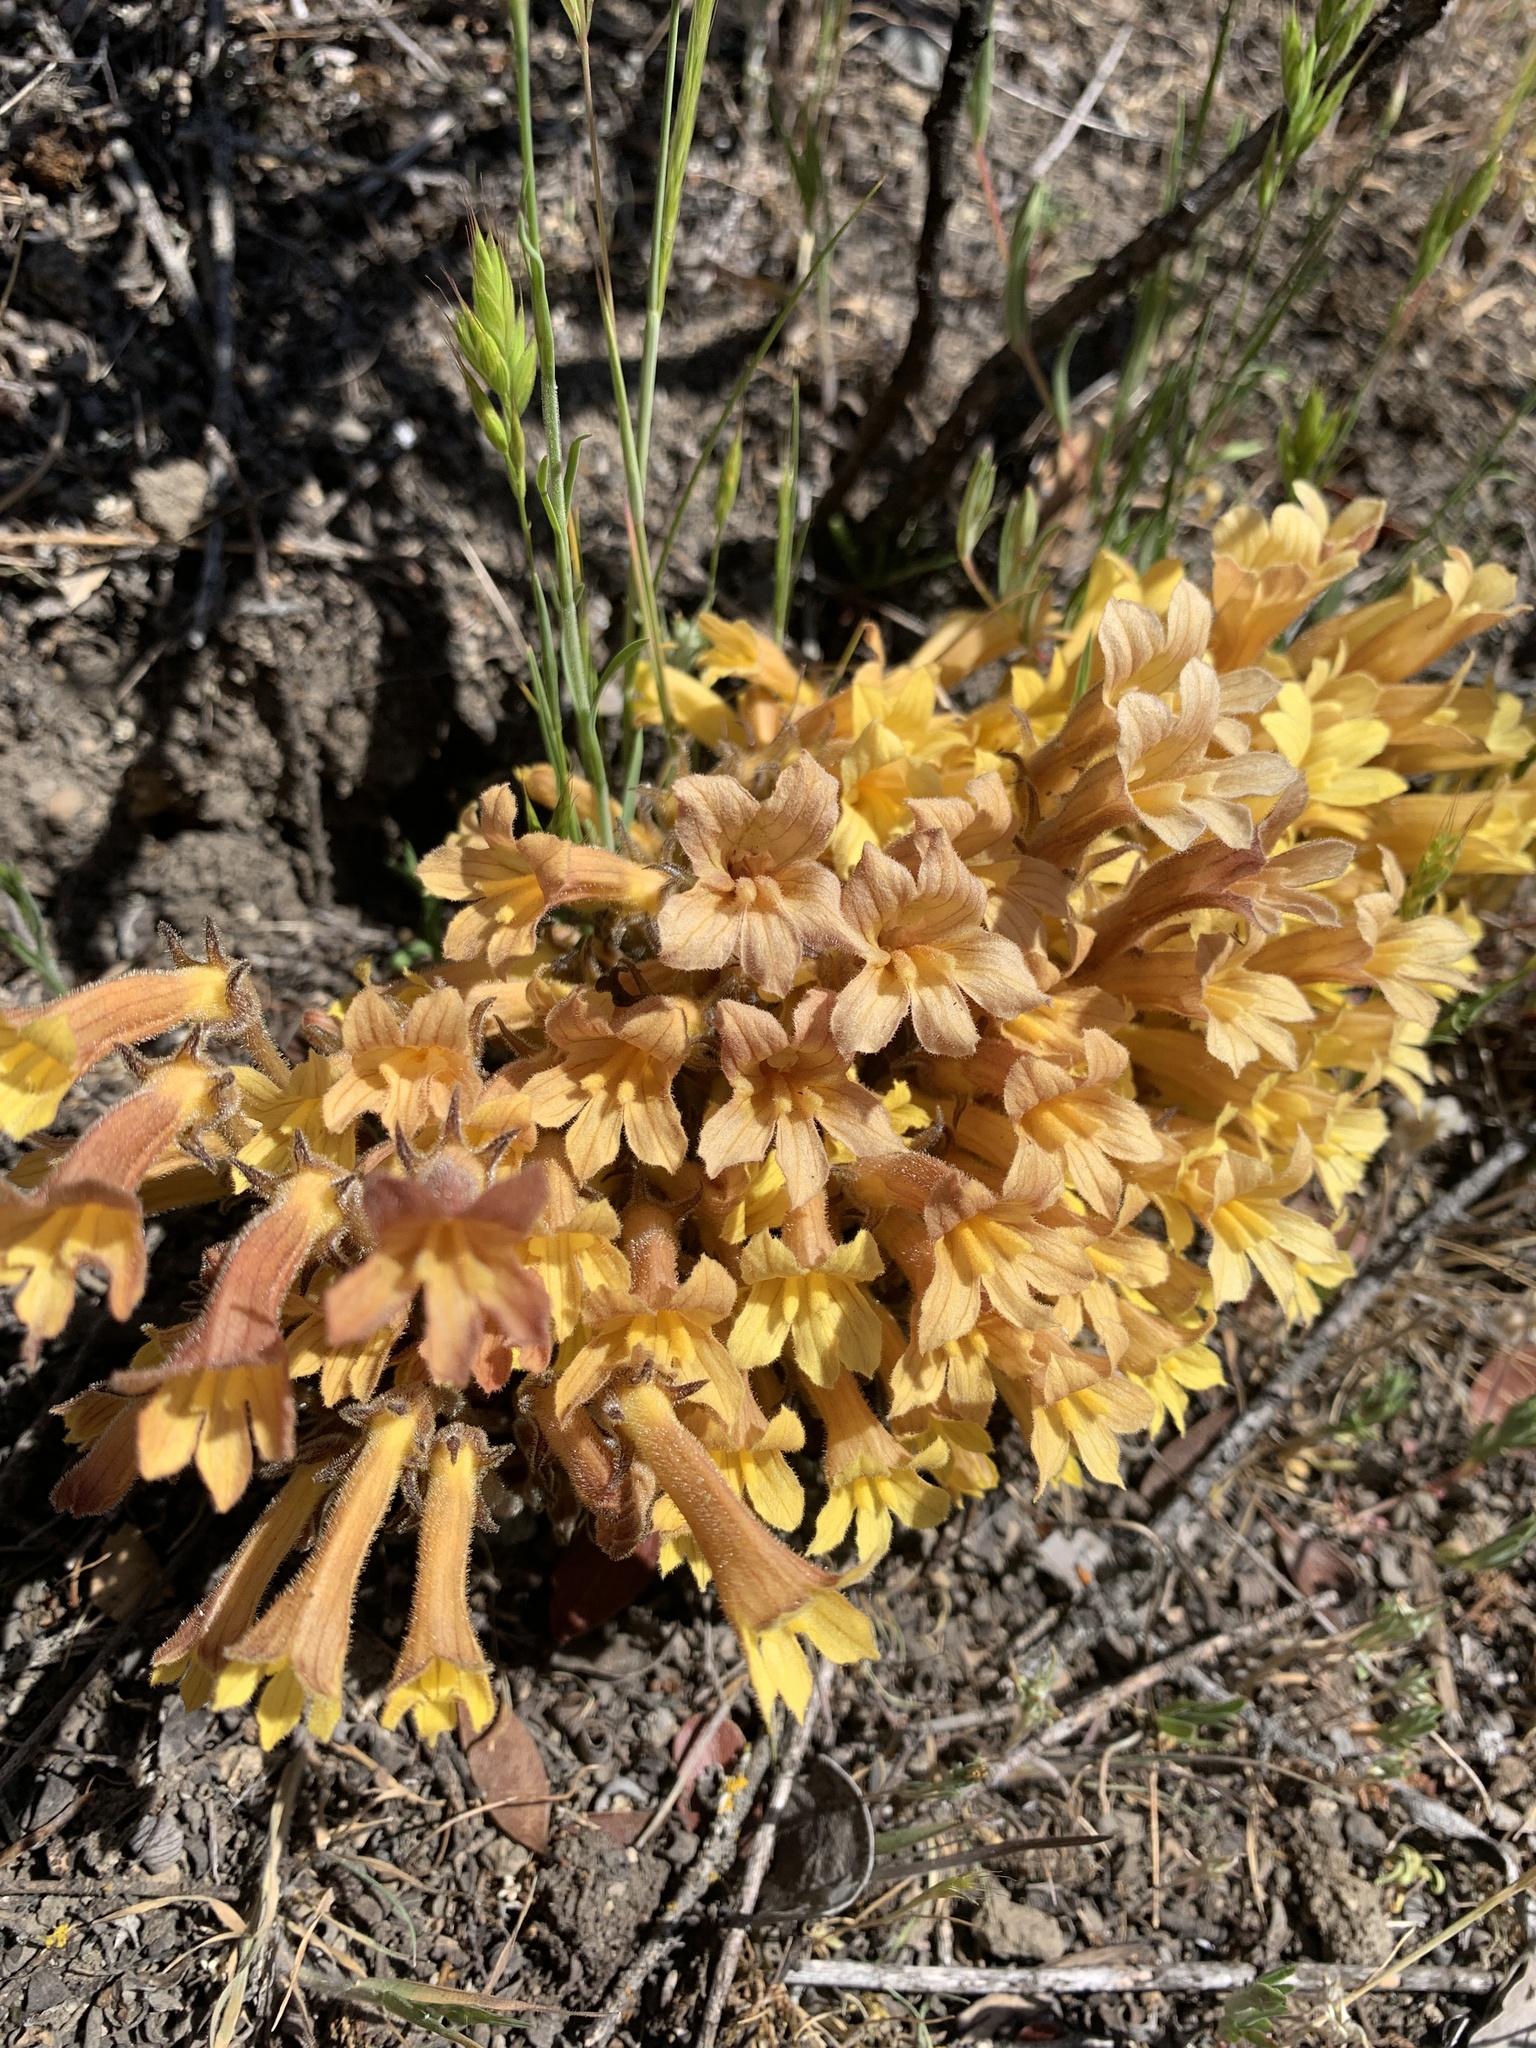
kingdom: Plantae
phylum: Tracheophyta
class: Magnoliopsida
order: Lamiales
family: Orobanchaceae
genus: Aphyllon
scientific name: Aphyllon franciscanum
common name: San francisco broomrape
